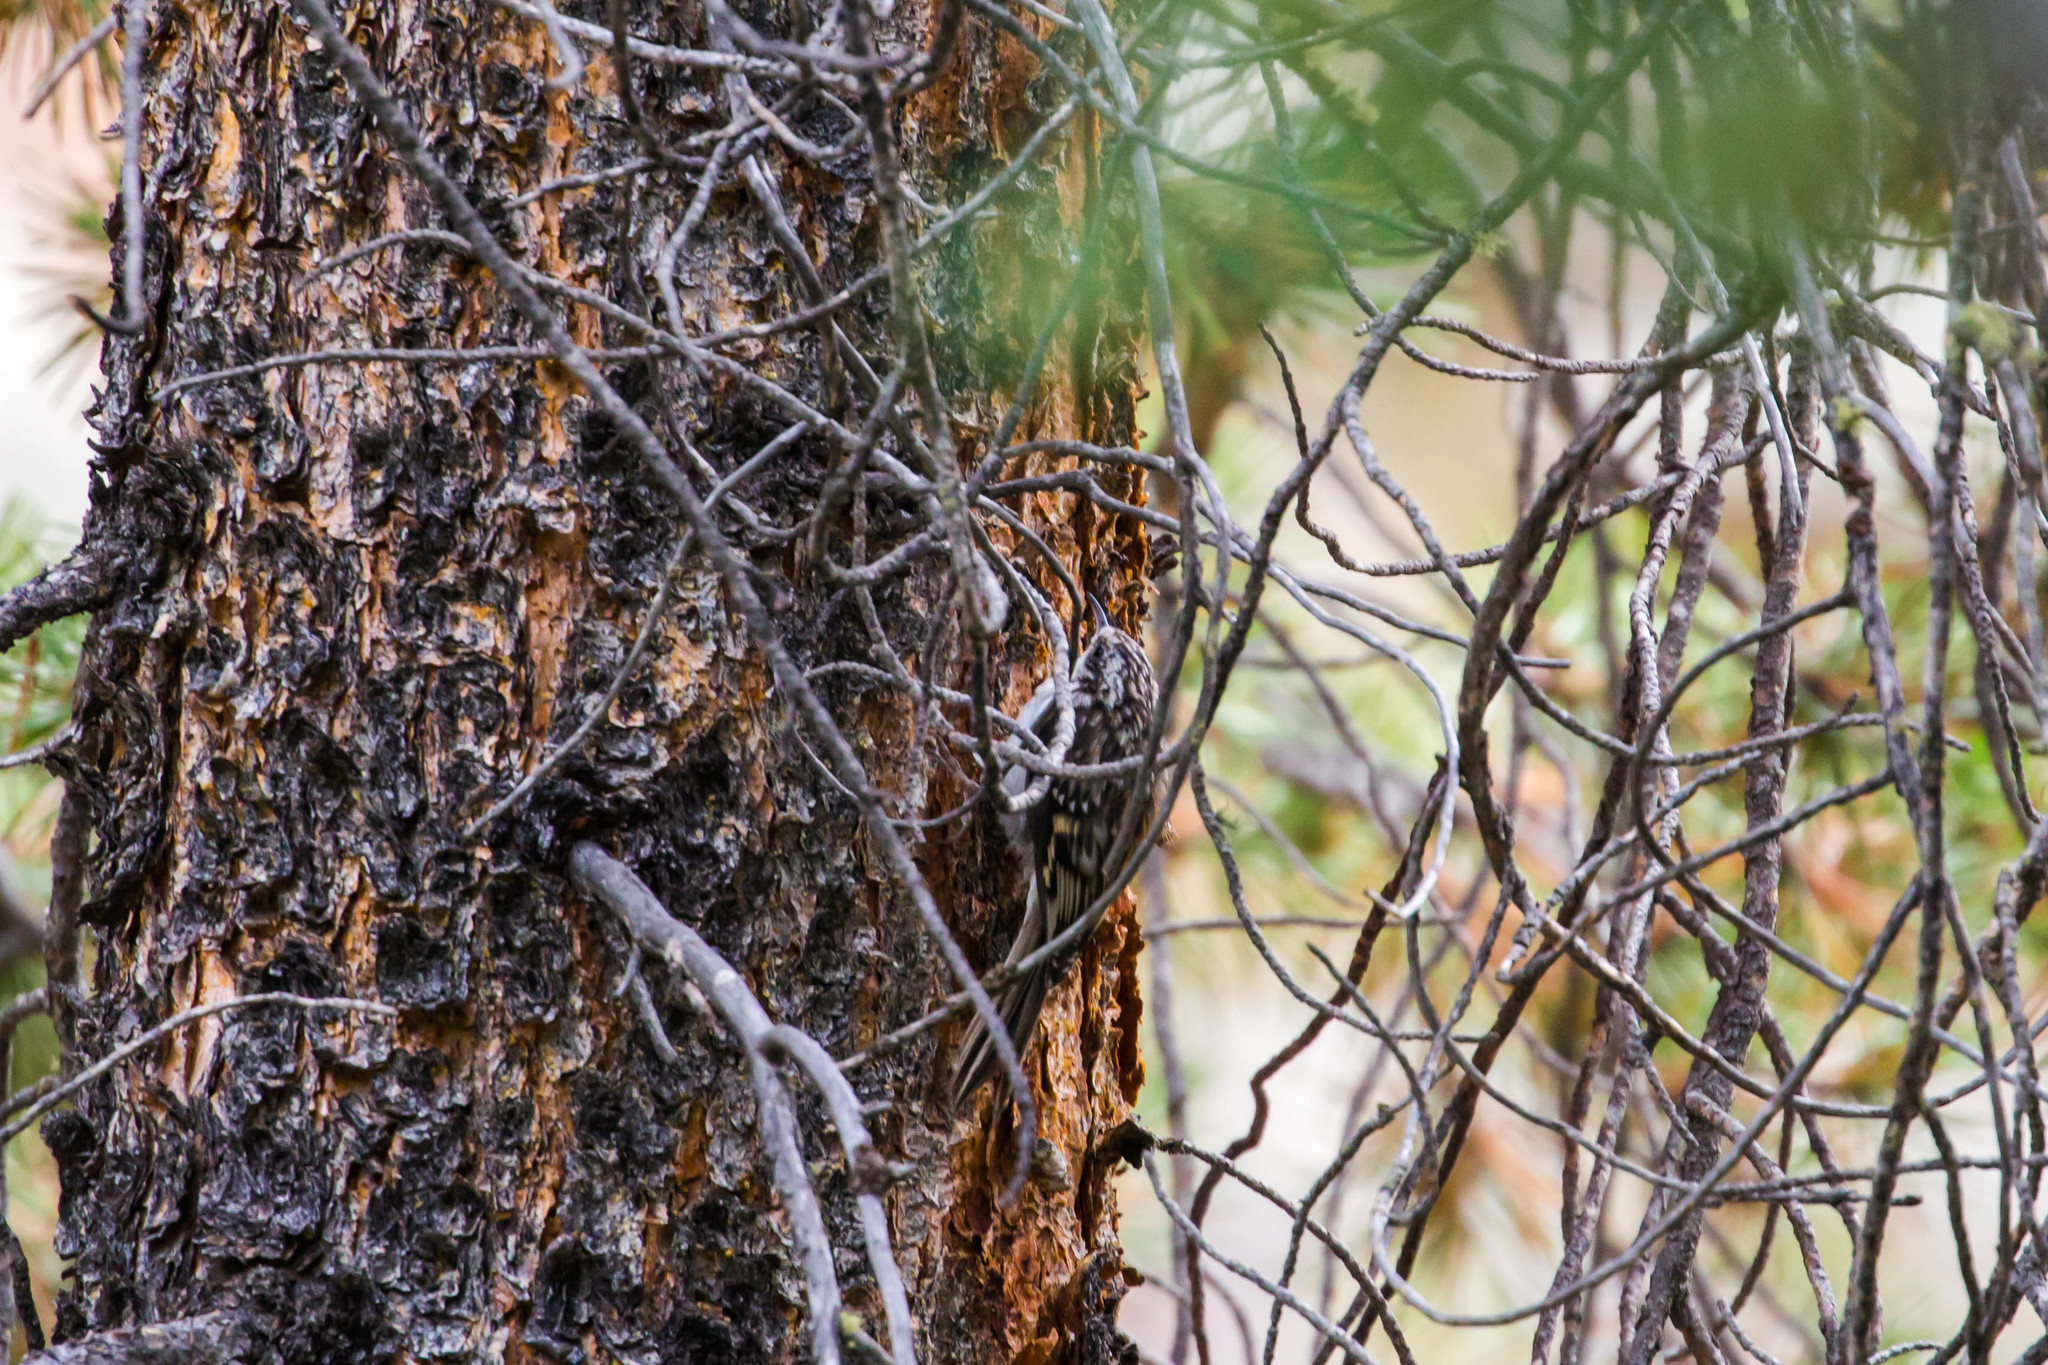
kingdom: Animalia
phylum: Chordata
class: Aves
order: Passeriformes
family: Certhiidae
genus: Certhia
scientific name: Certhia americana
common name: Brown creeper
